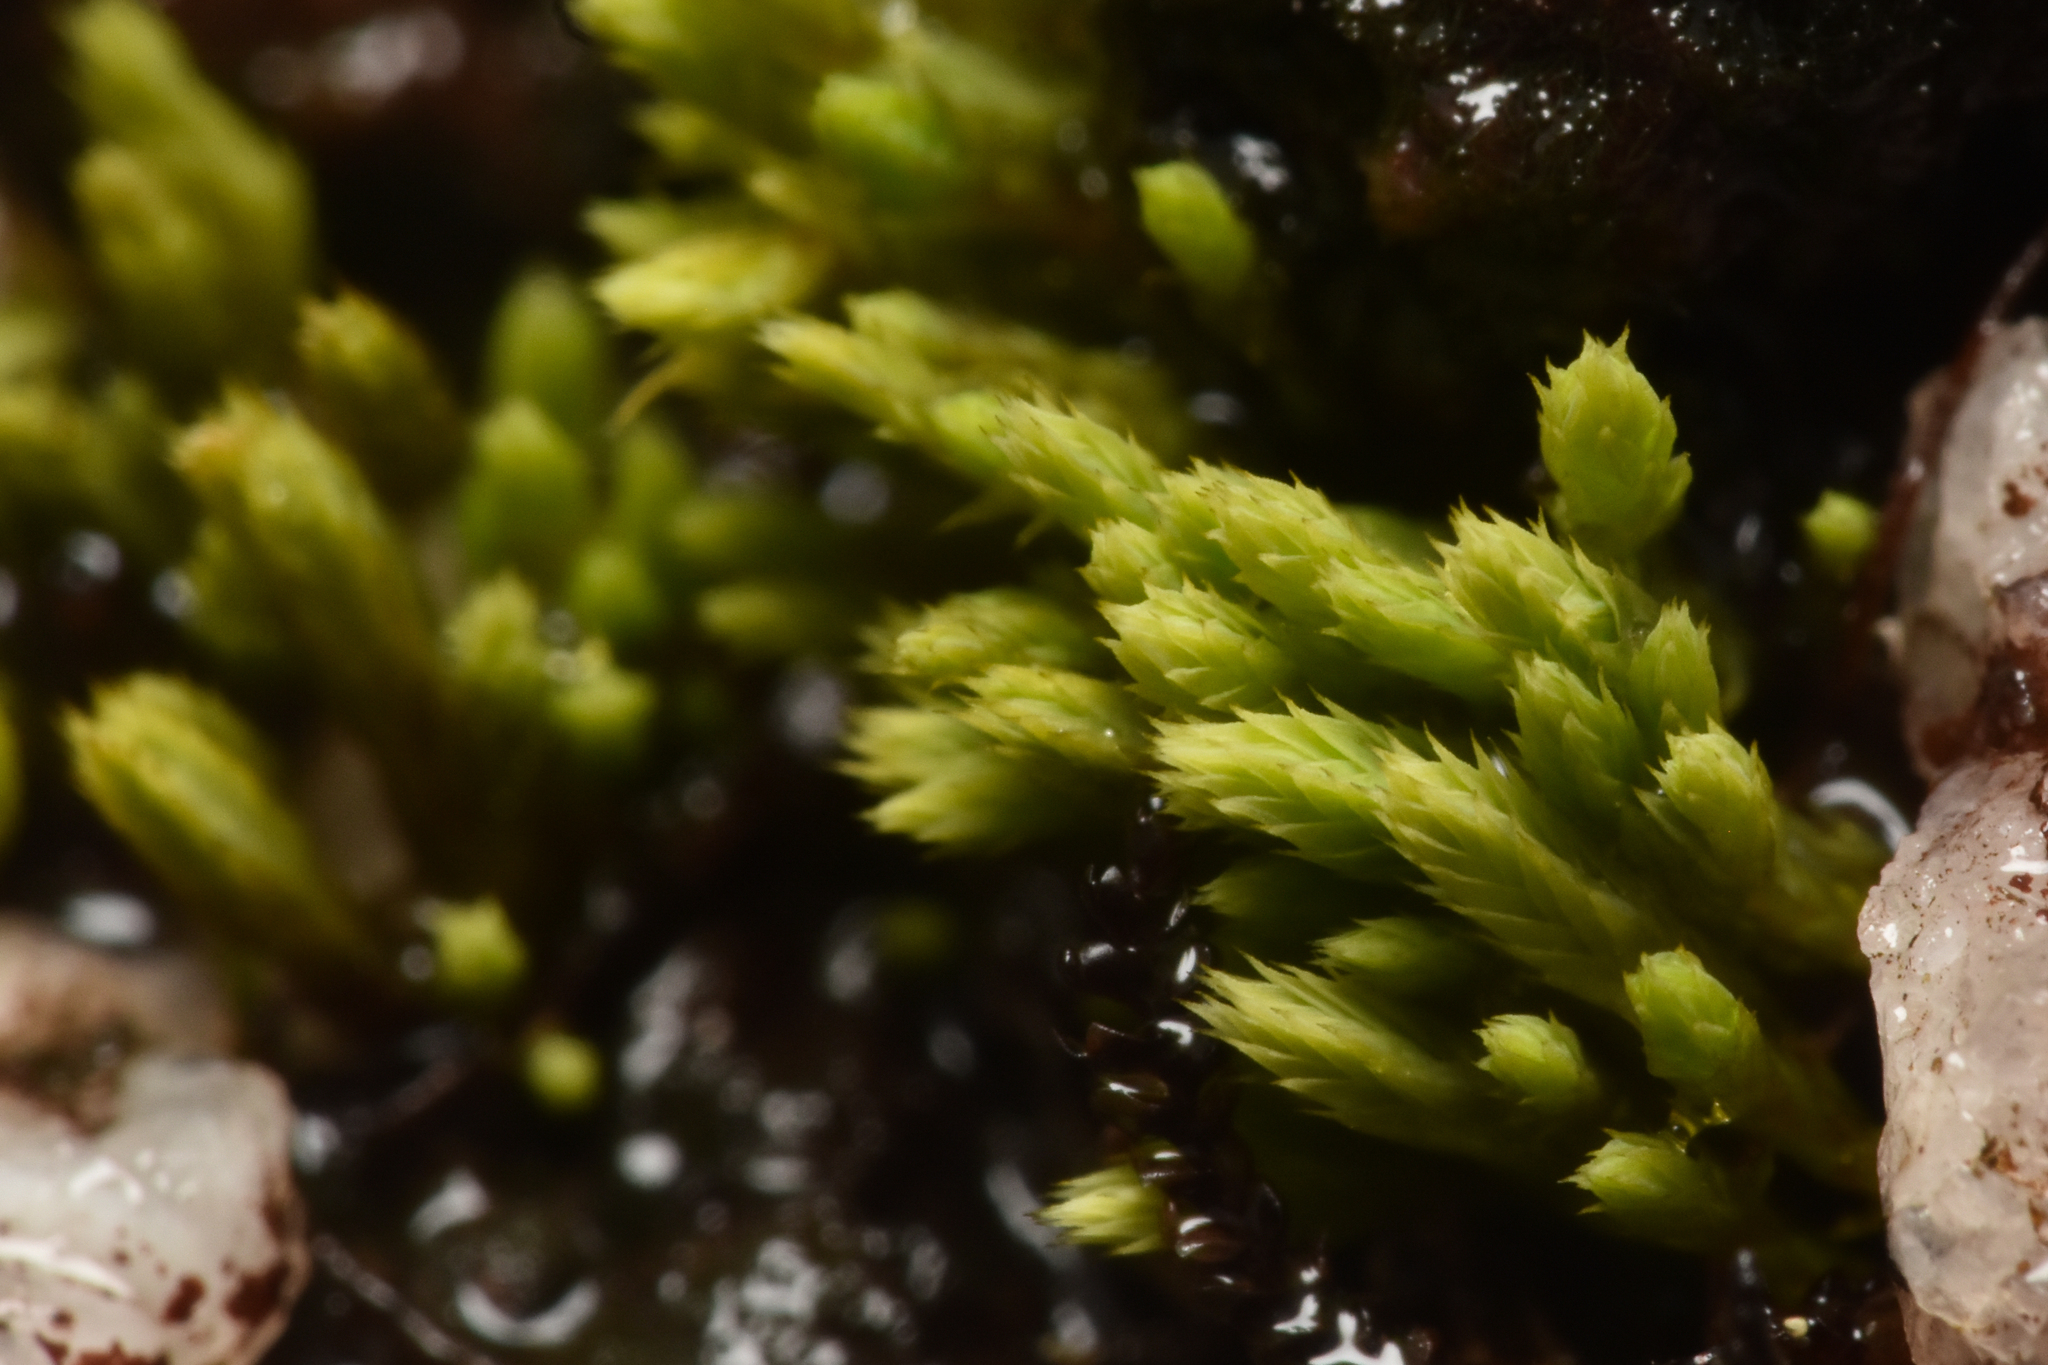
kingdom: Plantae
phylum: Bryophyta
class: Bryopsida
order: Bartramiales
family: Bartramiaceae
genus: Conostomum
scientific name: Conostomum tetragonum
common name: Helmet moss
